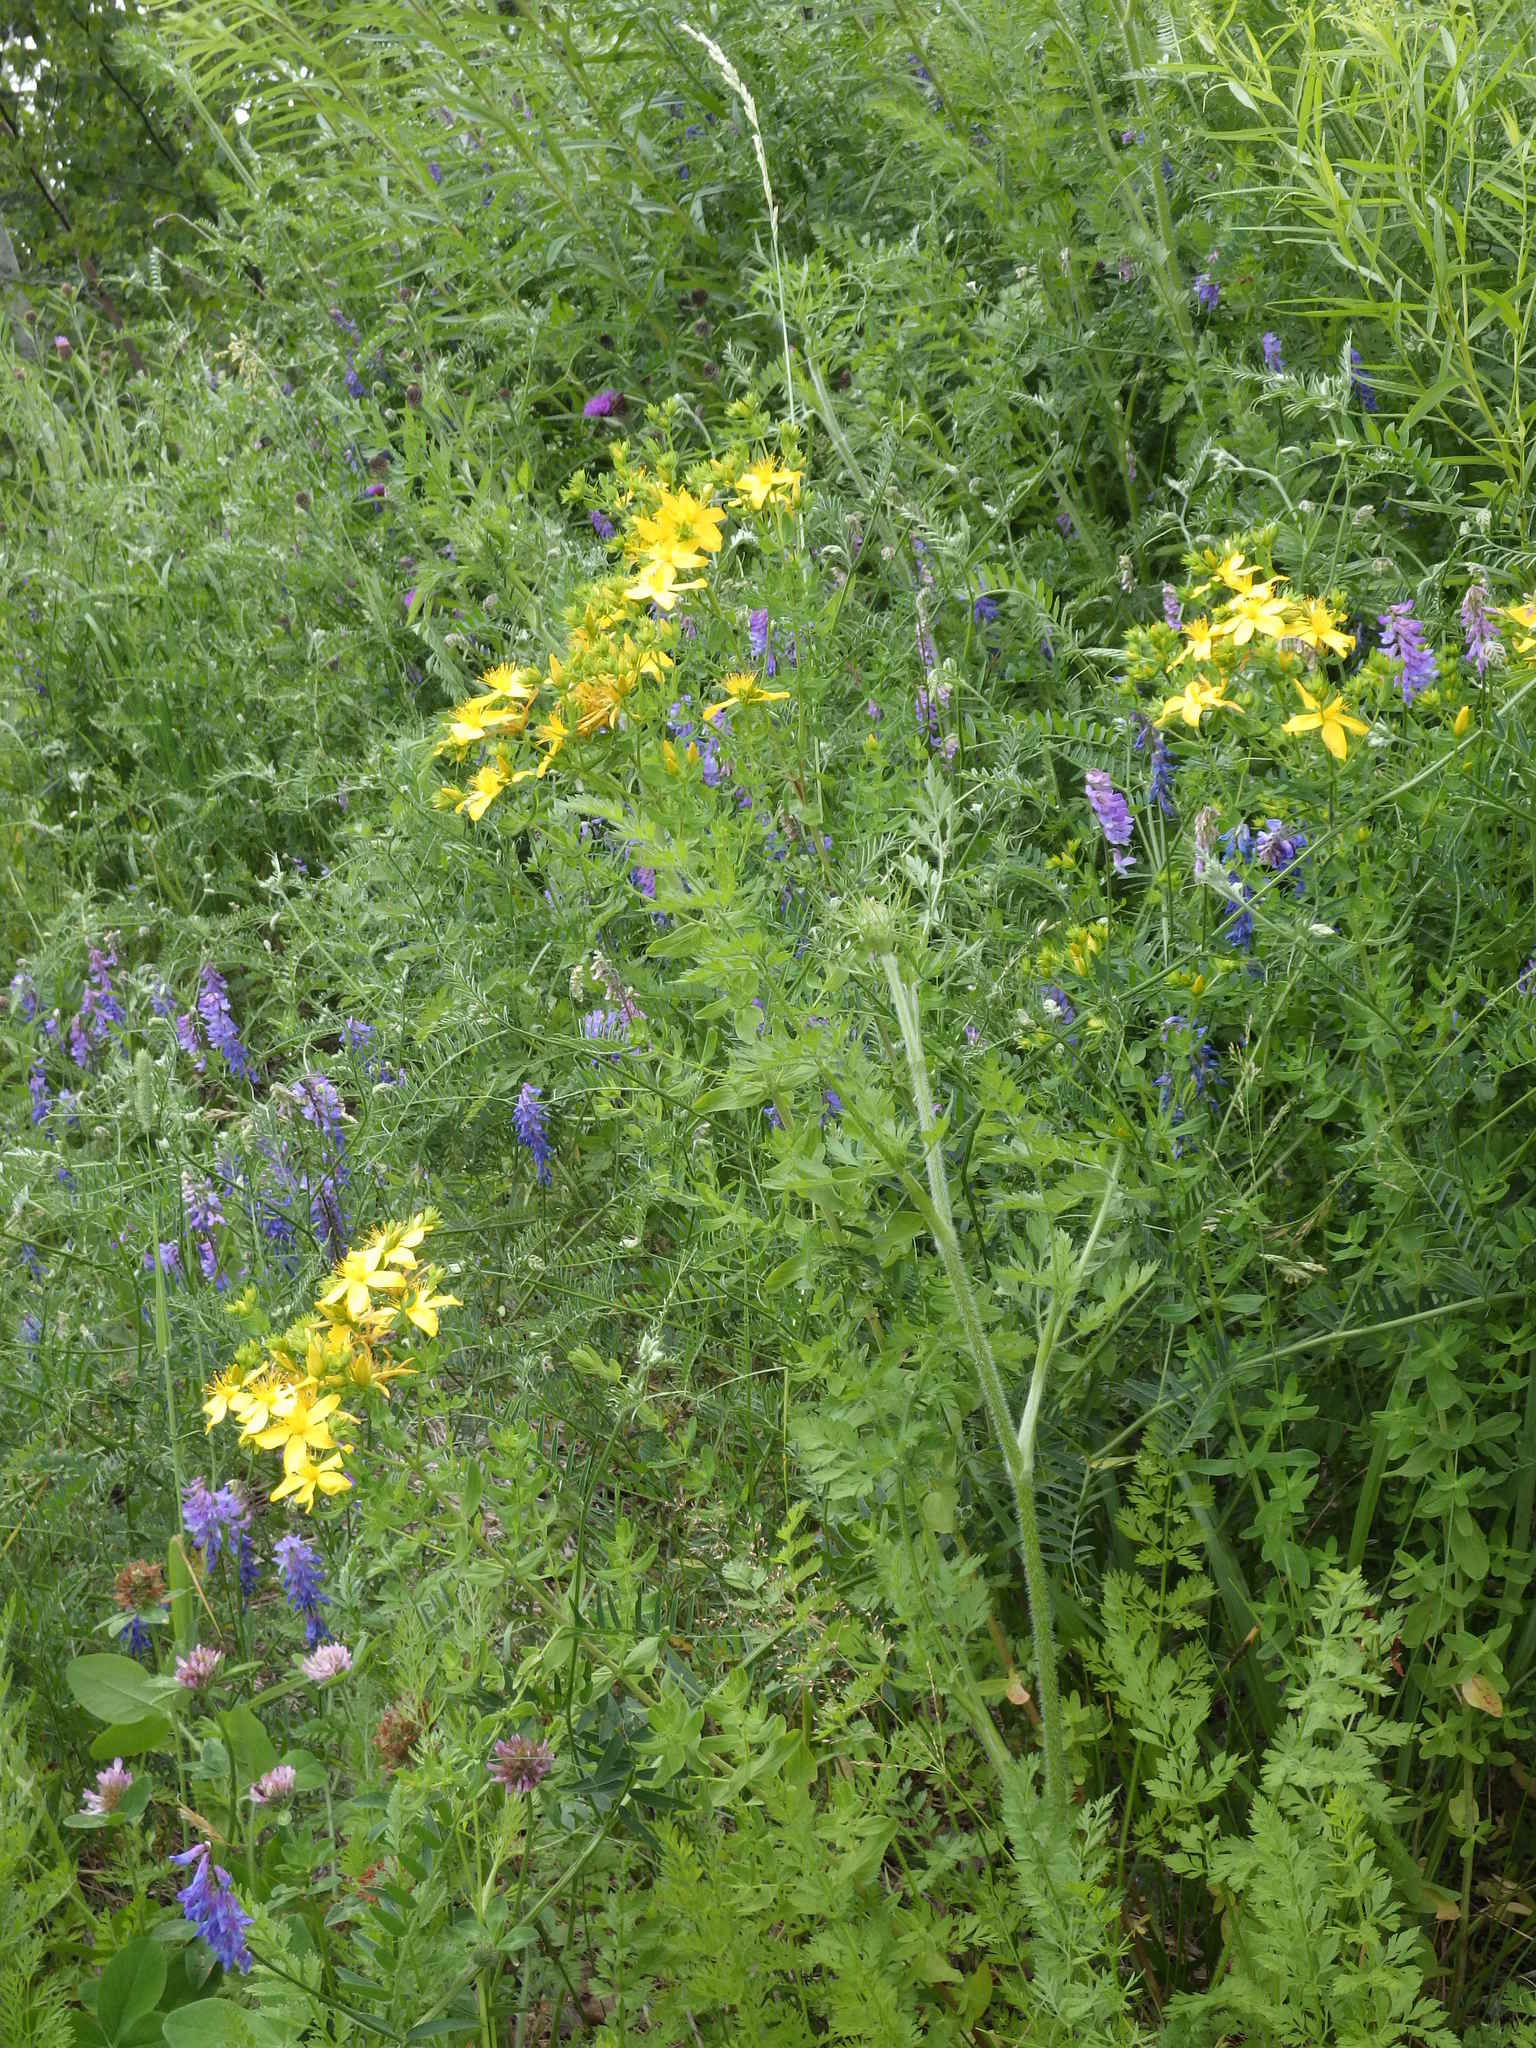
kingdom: Plantae
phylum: Tracheophyta
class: Magnoliopsida
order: Malpighiales
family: Hypericaceae
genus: Hypericum
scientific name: Hypericum perforatum
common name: Common st. johnswort
